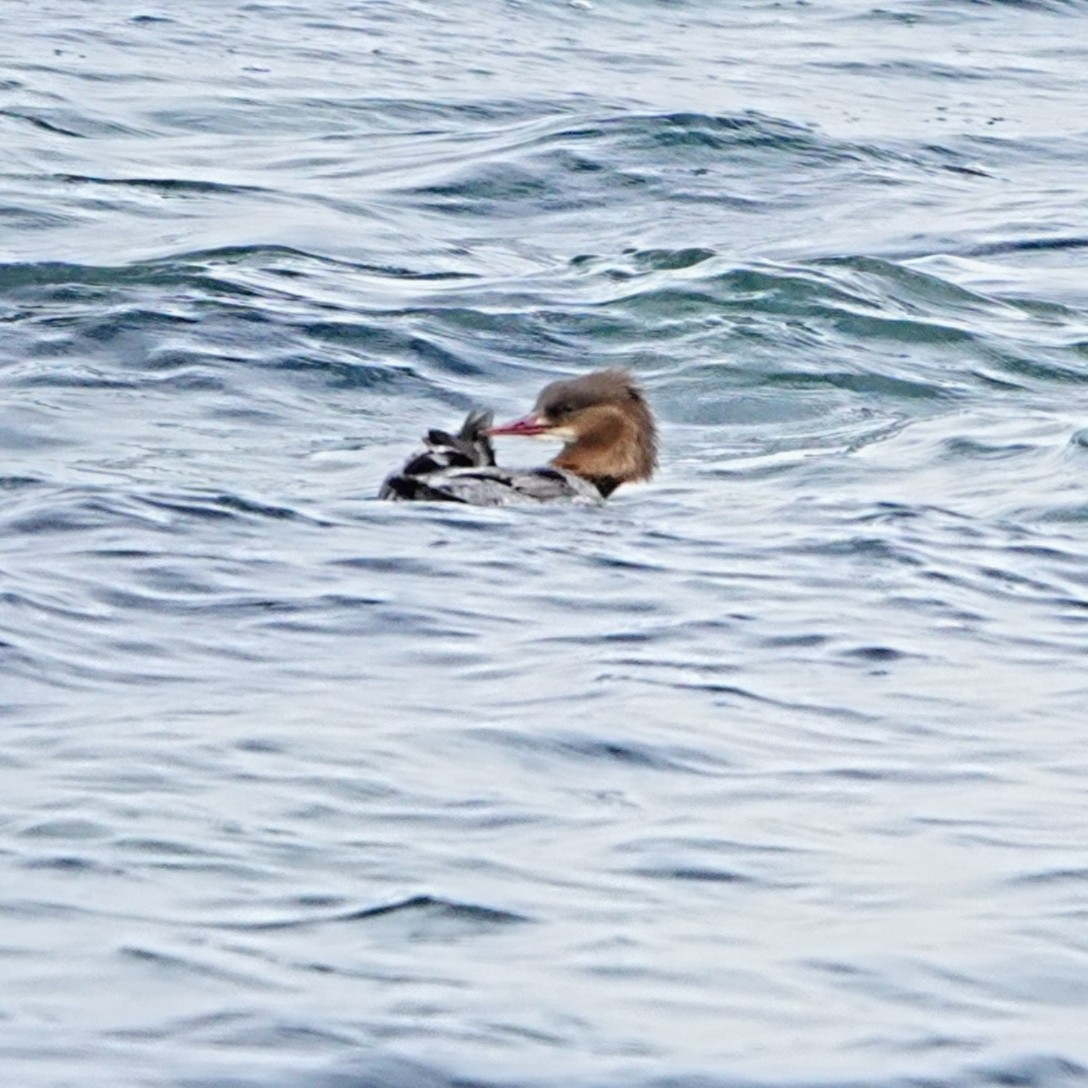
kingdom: Animalia
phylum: Chordata
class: Aves
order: Anseriformes
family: Anatidae
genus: Mergus
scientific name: Mergus merganser
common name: Common merganser
